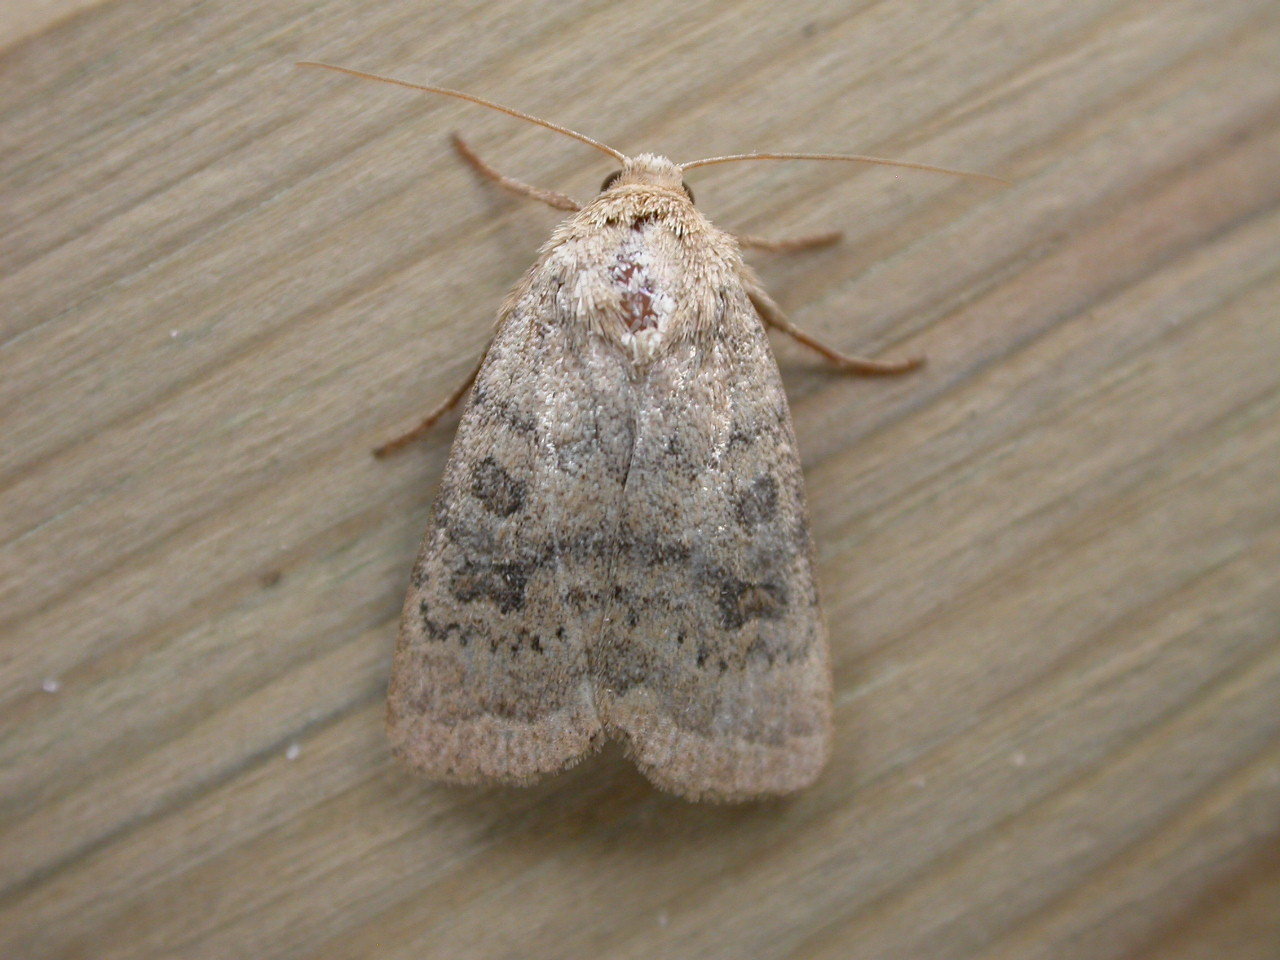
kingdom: Animalia
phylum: Arthropoda
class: Insecta
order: Lepidoptera
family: Noctuidae
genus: Hoplodrina
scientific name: Hoplodrina octogenaria
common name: Uncertain
